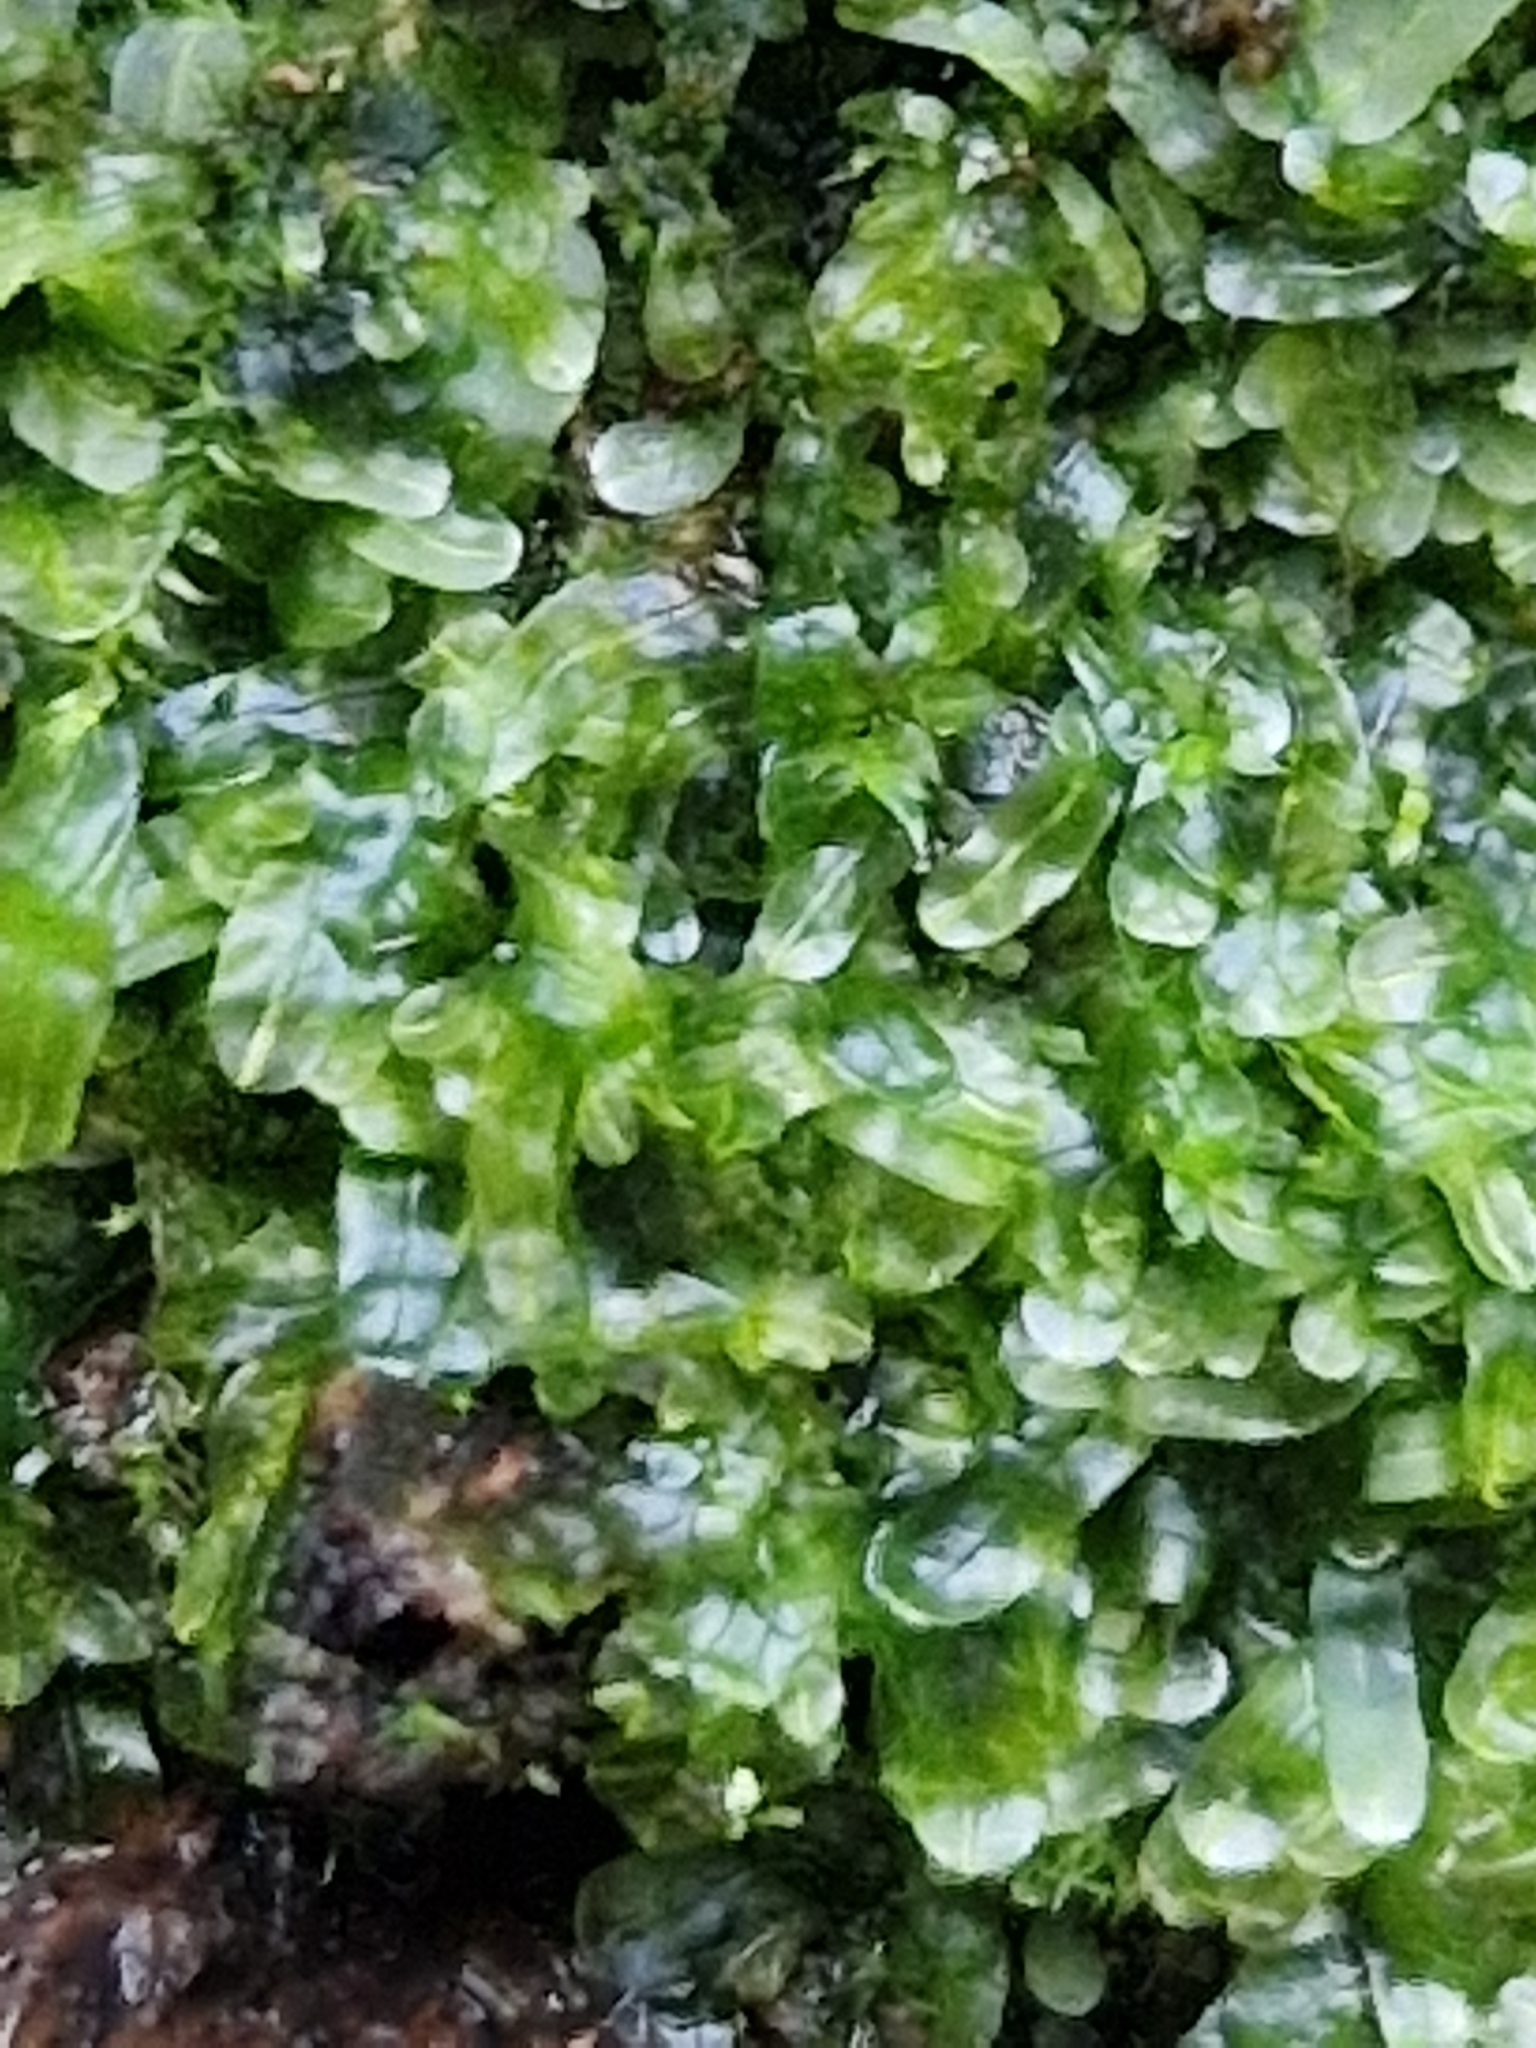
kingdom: Plantae
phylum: Marchantiophyta
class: Jungermanniopsida
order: Metzgeriales
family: Metzgeriaceae
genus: Metzgeria
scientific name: Metzgeria furcata
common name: Forked veilwort
